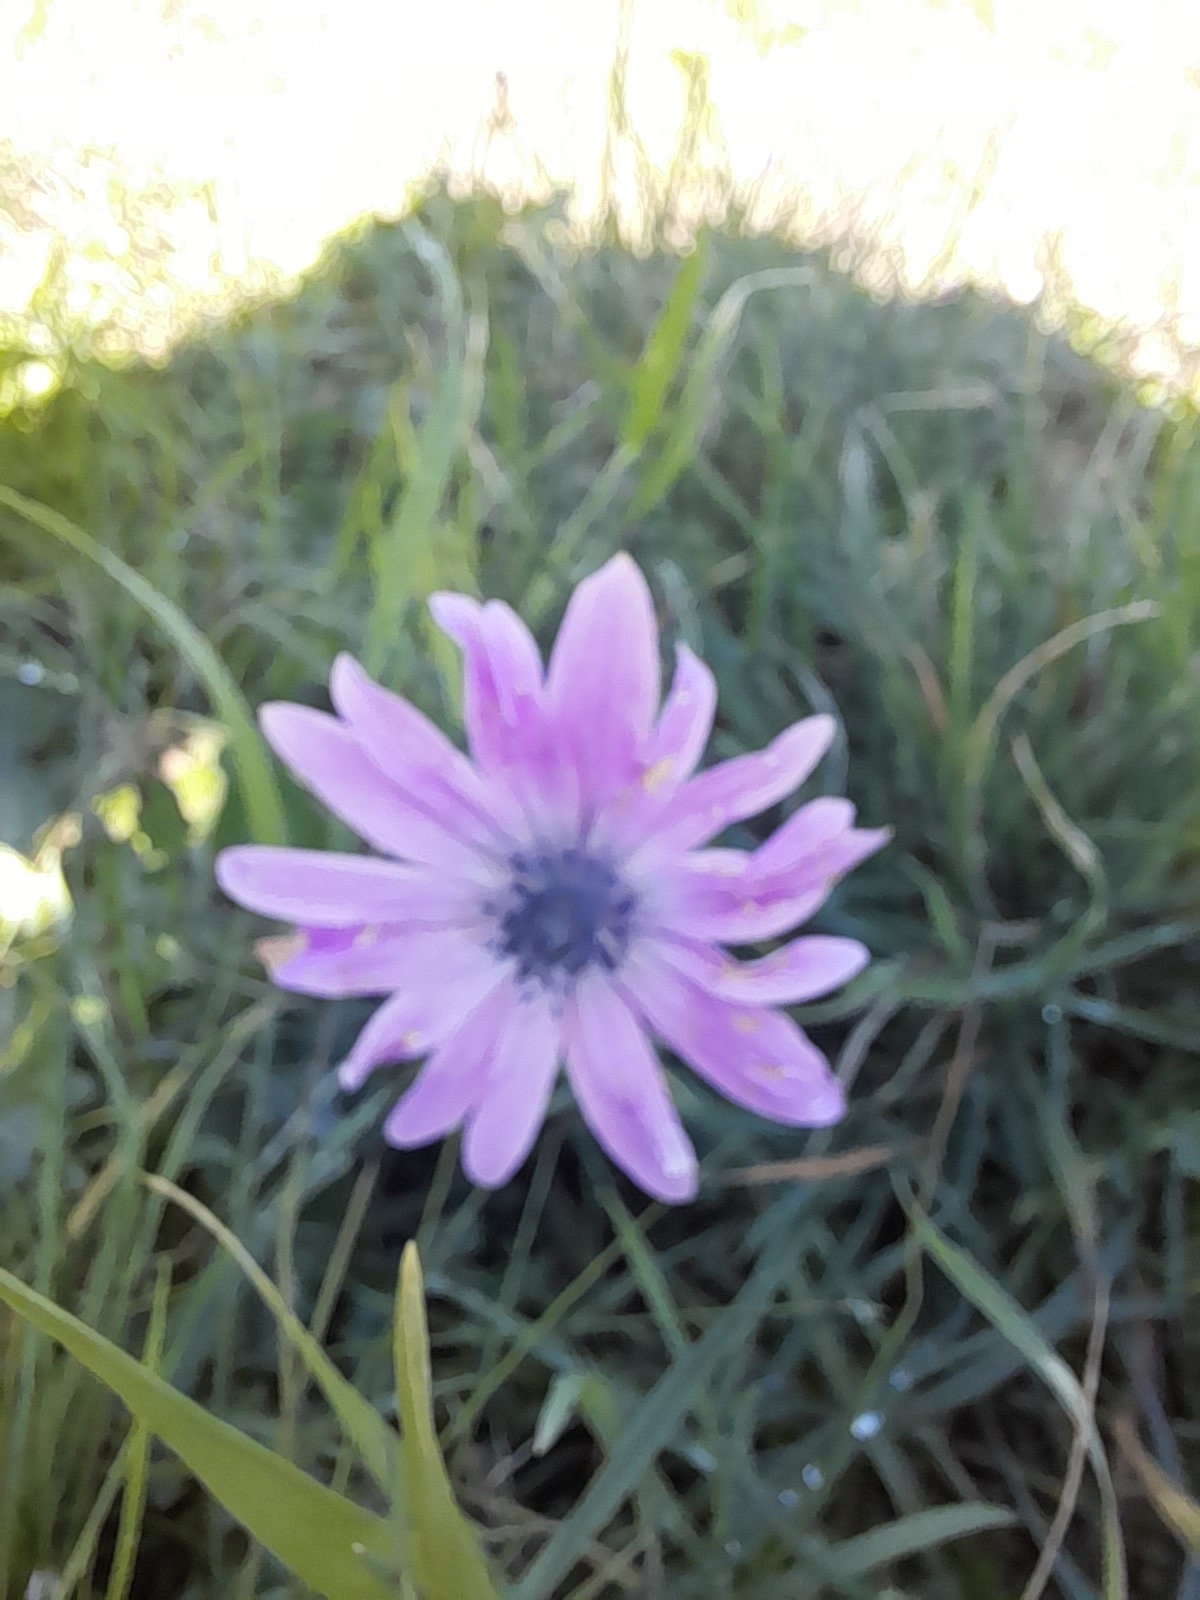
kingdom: Plantae
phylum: Tracheophyta
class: Magnoliopsida
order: Ranunculales
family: Ranunculaceae
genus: Anemone
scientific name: Anemone hortensis
